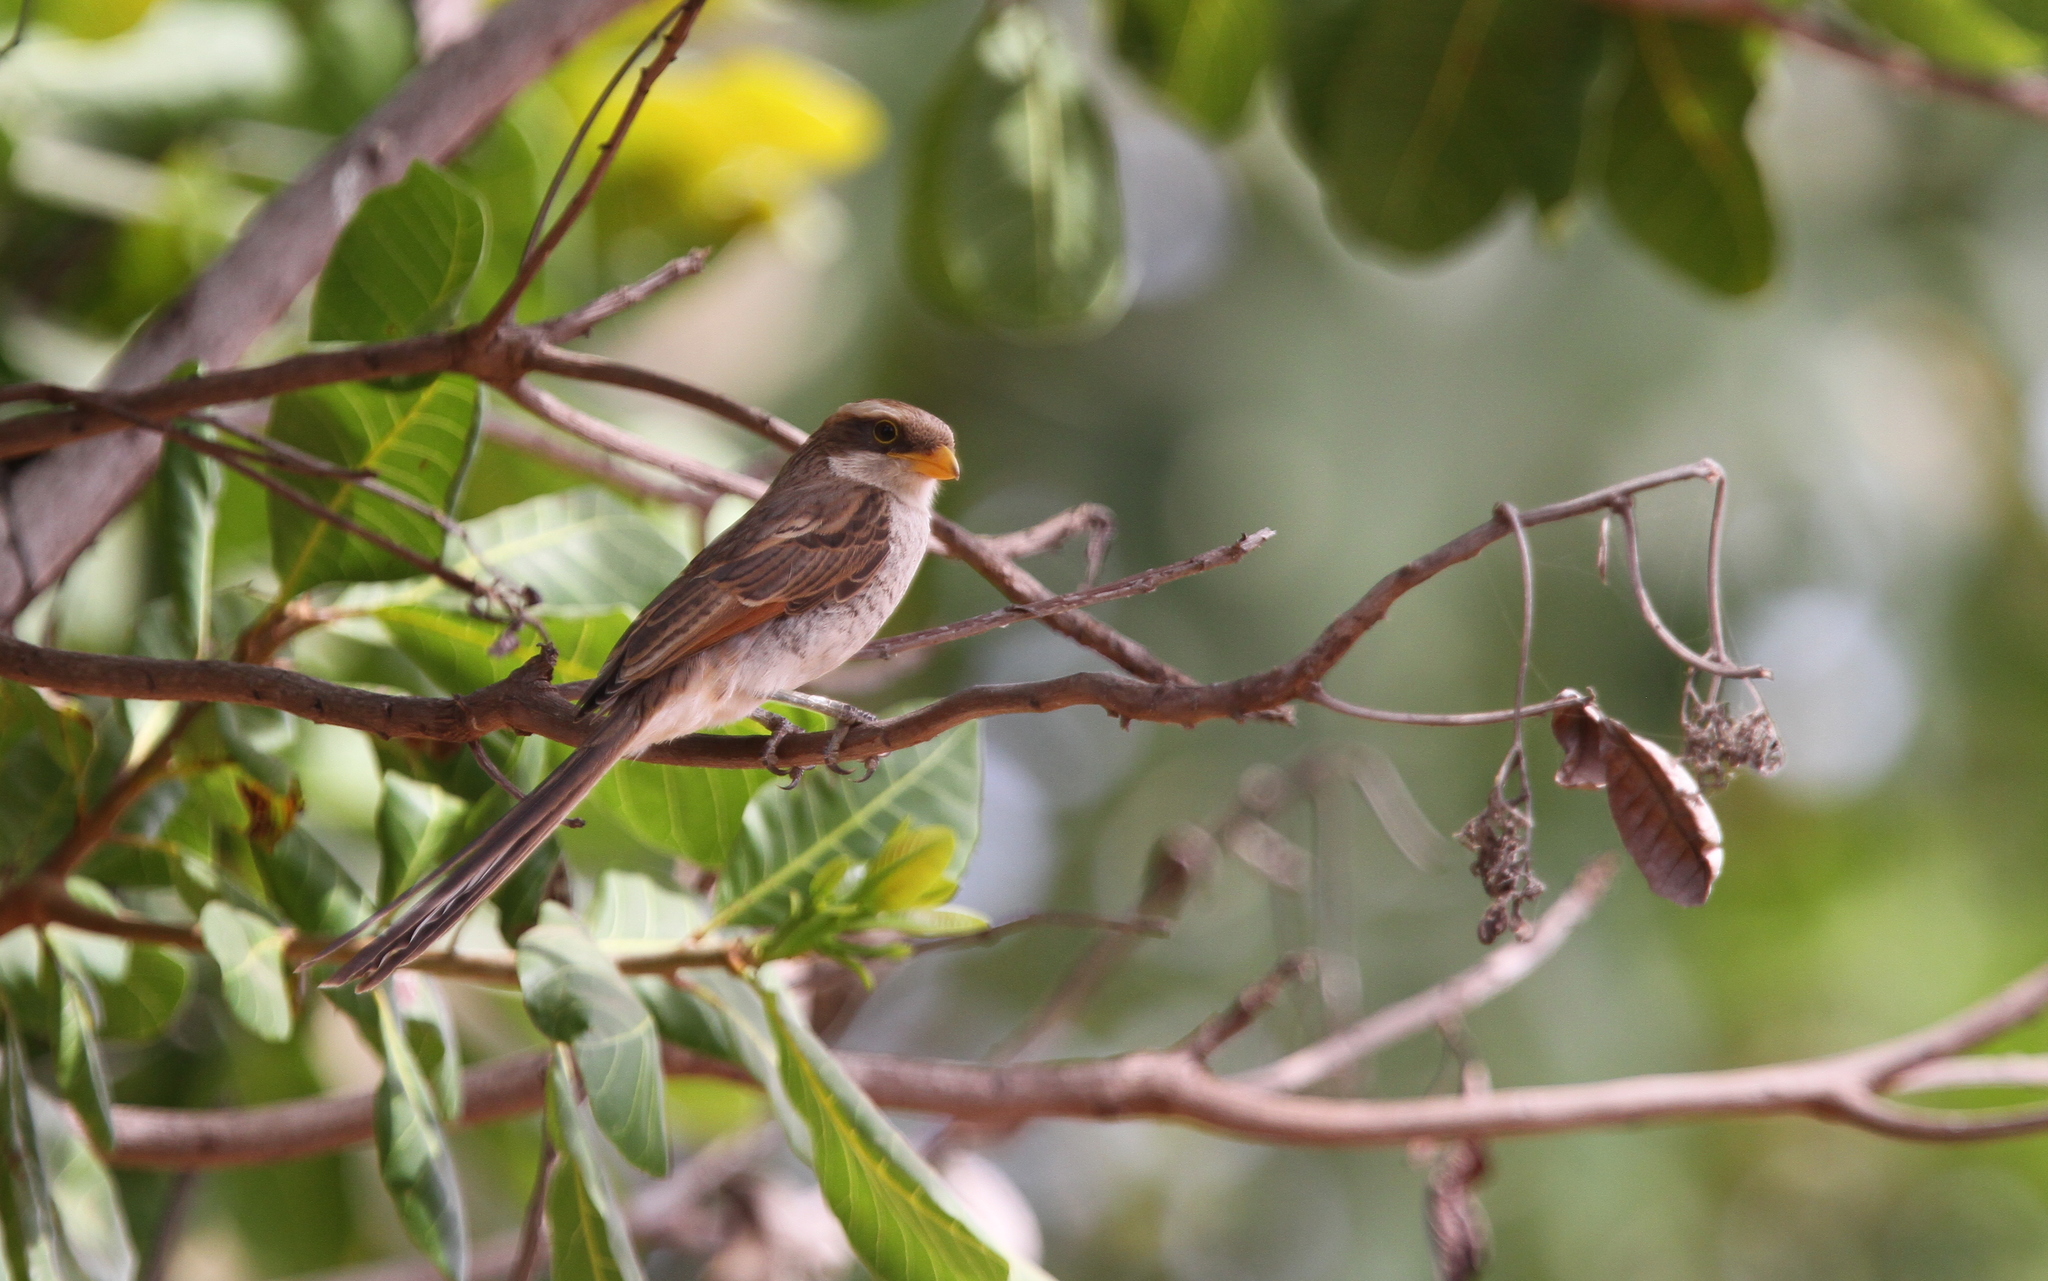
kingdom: Animalia
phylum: Chordata
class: Aves
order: Passeriformes
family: Laniidae
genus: Corvinella
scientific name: Corvinella corvina
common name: Yellow-billed shrike
